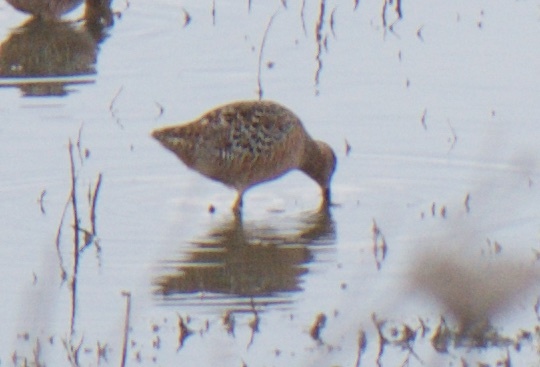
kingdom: Animalia
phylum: Chordata
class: Aves
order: Charadriiformes
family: Scolopacidae
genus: Limnodromus
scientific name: Limnodromus scolopaceus
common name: Long-billed dowitcher
